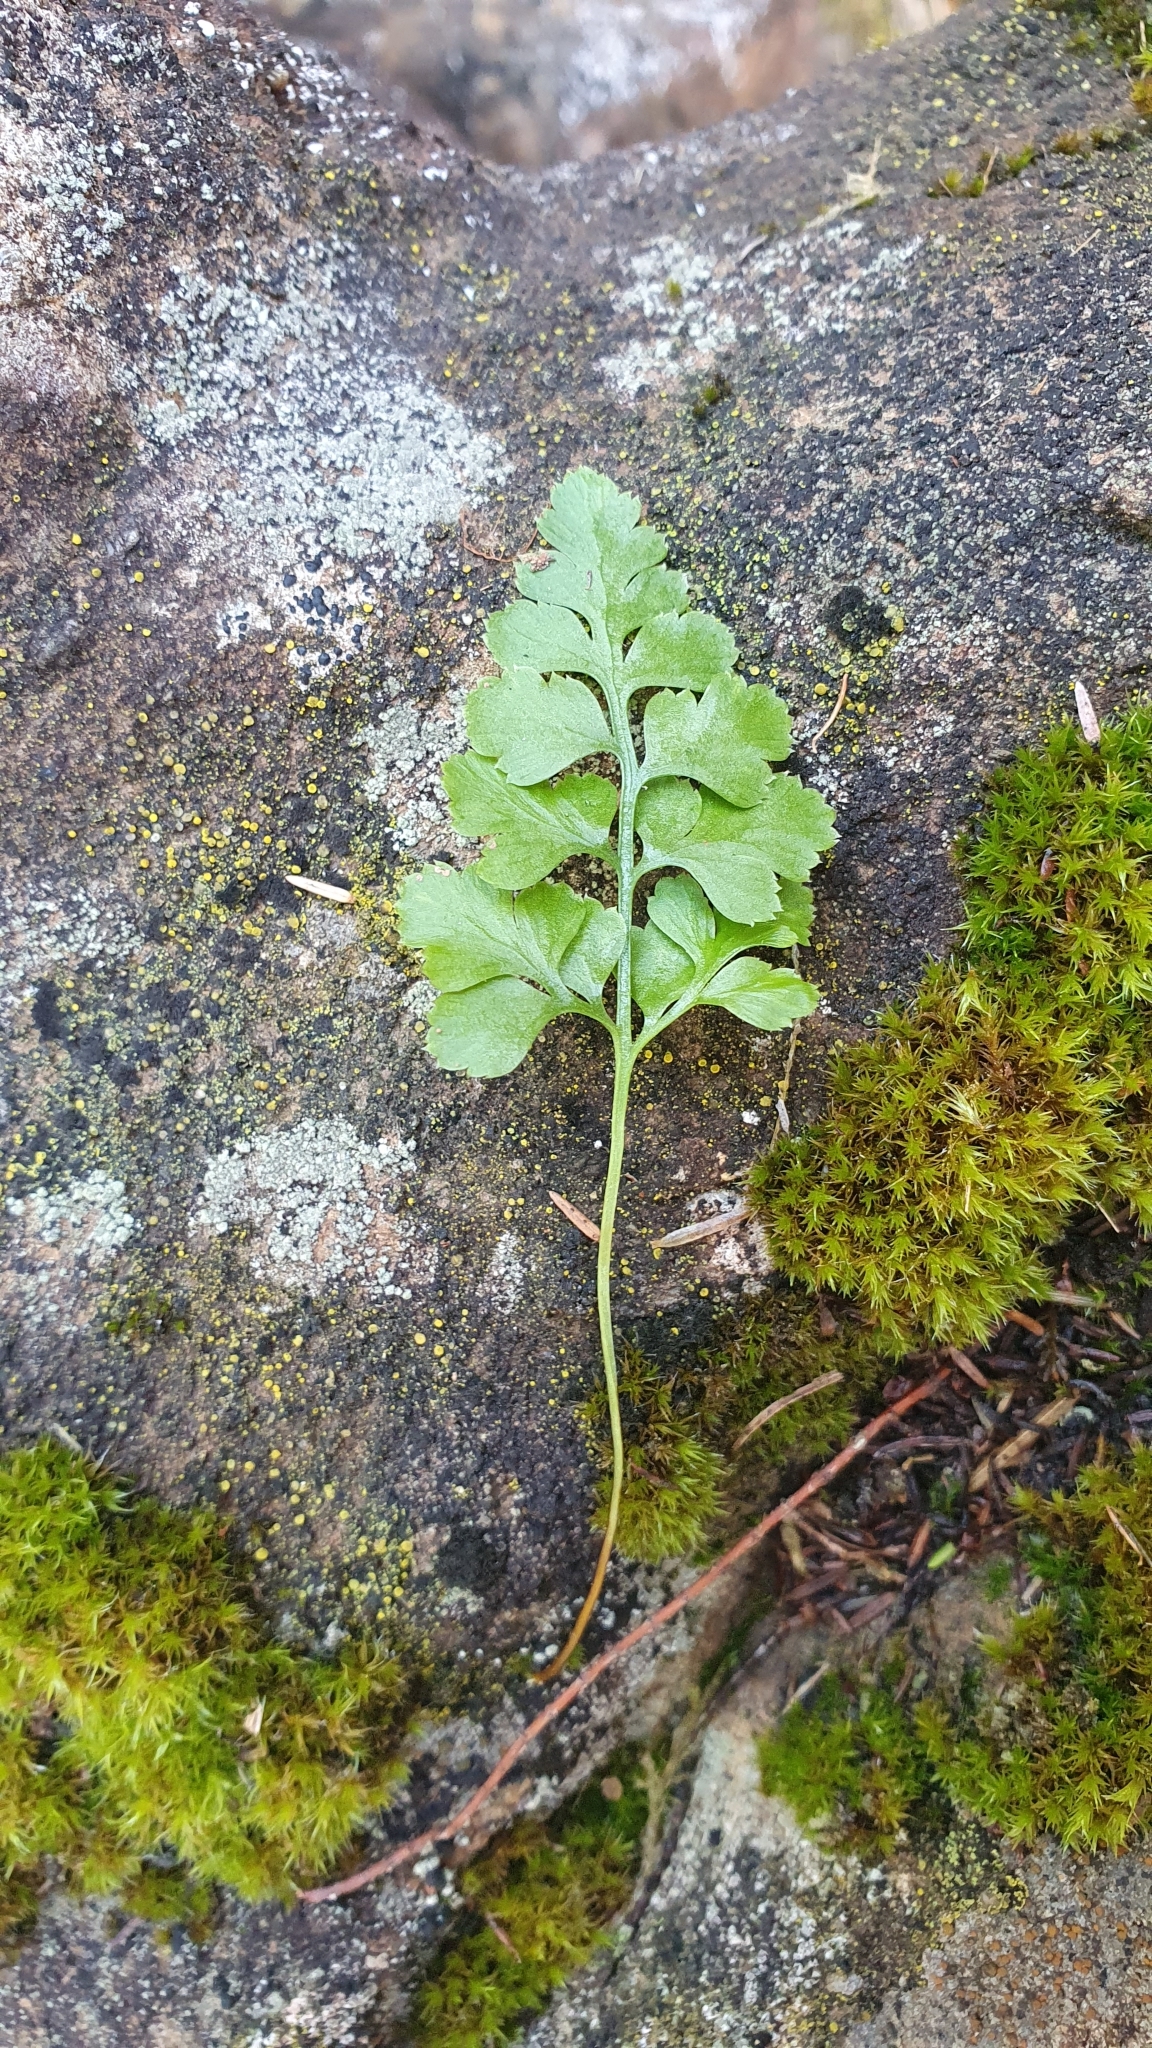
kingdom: Plantae
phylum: Tracheophyta
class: Polypodiopsida
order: Polypodiales
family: Aspleniaceae
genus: Asplenium
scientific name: Asplenium adiantum-nigrum
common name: Black spleenwort
